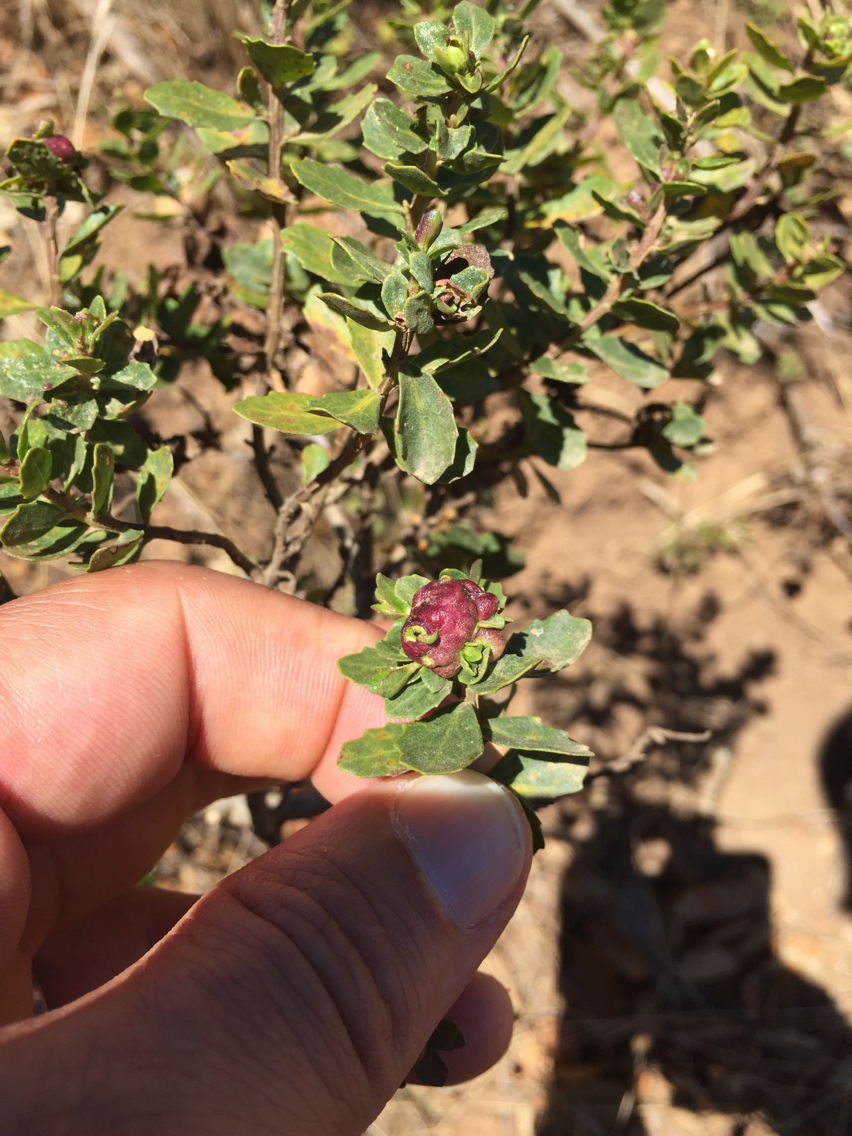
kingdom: Animalia
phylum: Arthropoda
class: Insecta
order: Diptera
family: Cecidomyiidae
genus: Rhopalomyia
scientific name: Rhopalomyia californica
